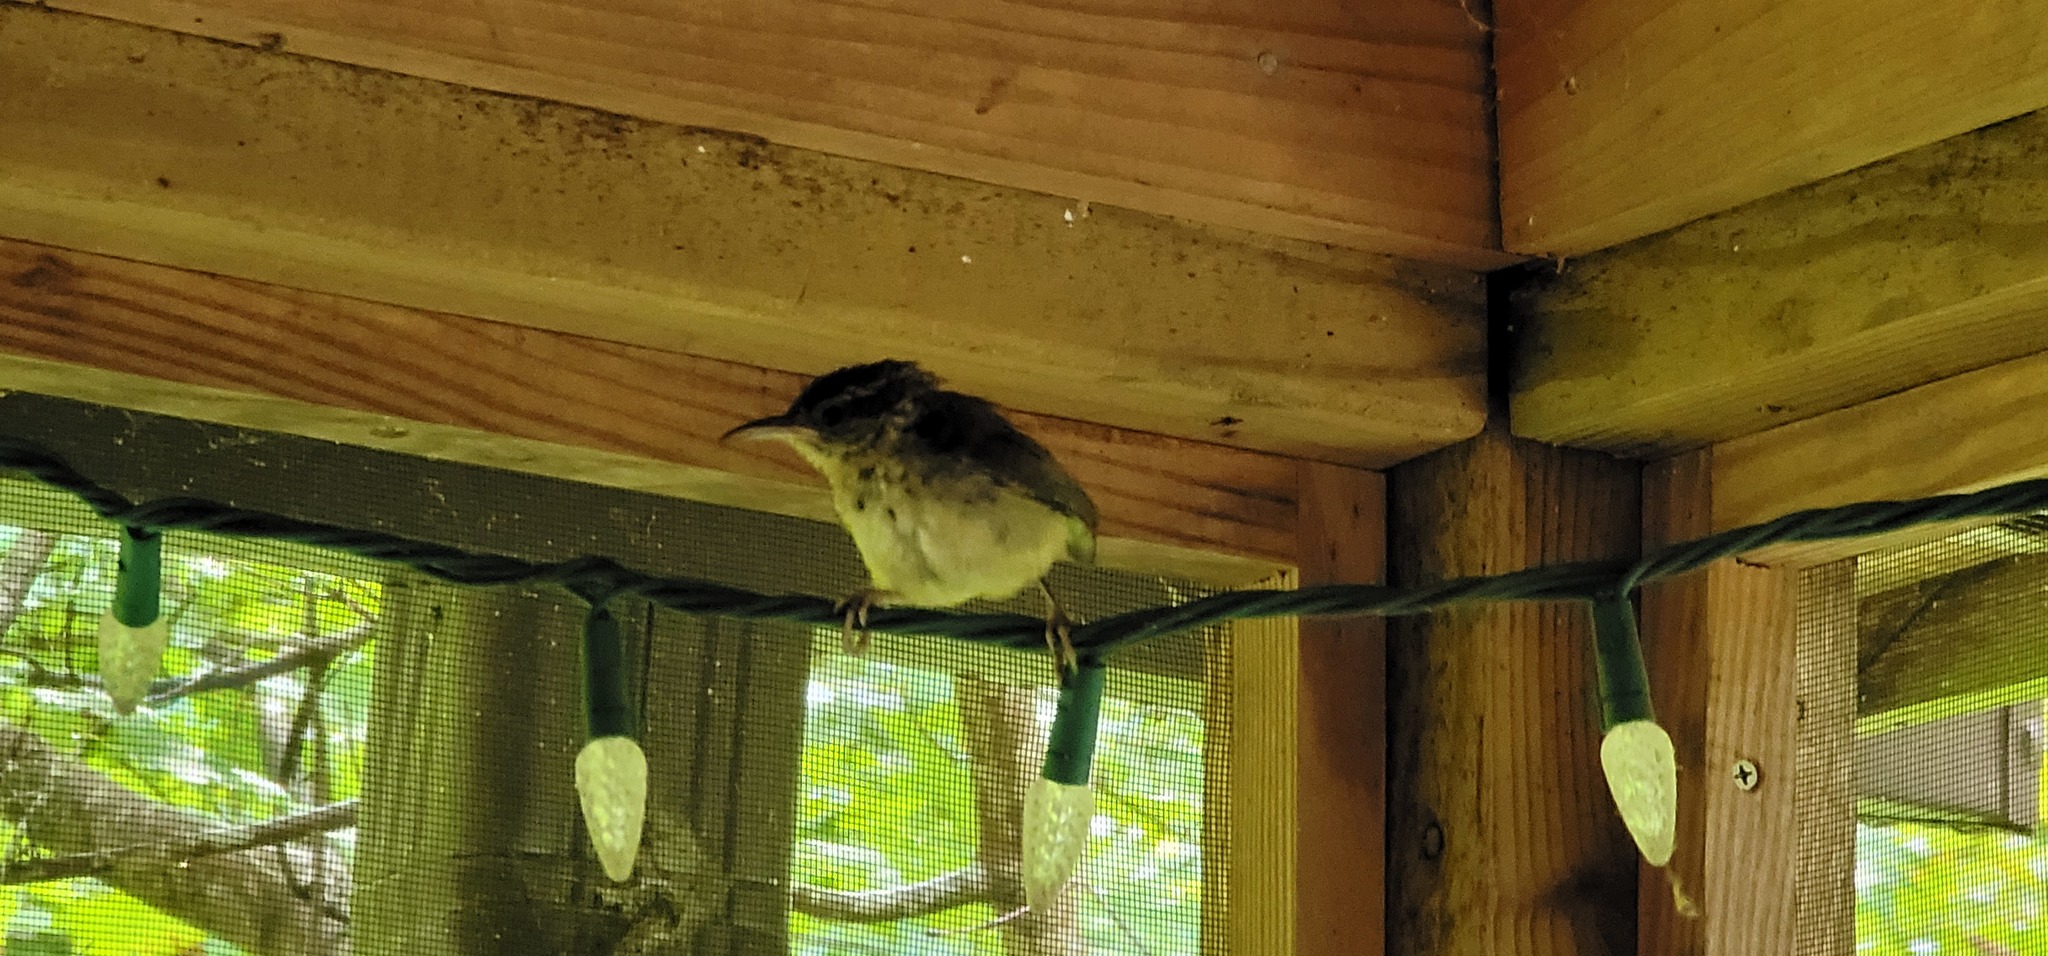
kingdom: Animalia
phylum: Chordata
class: Aves
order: Passeriformes
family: Troglodytidae
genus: Thryothorus
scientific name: Thryothorus ludovicianus
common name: Carolina wren
